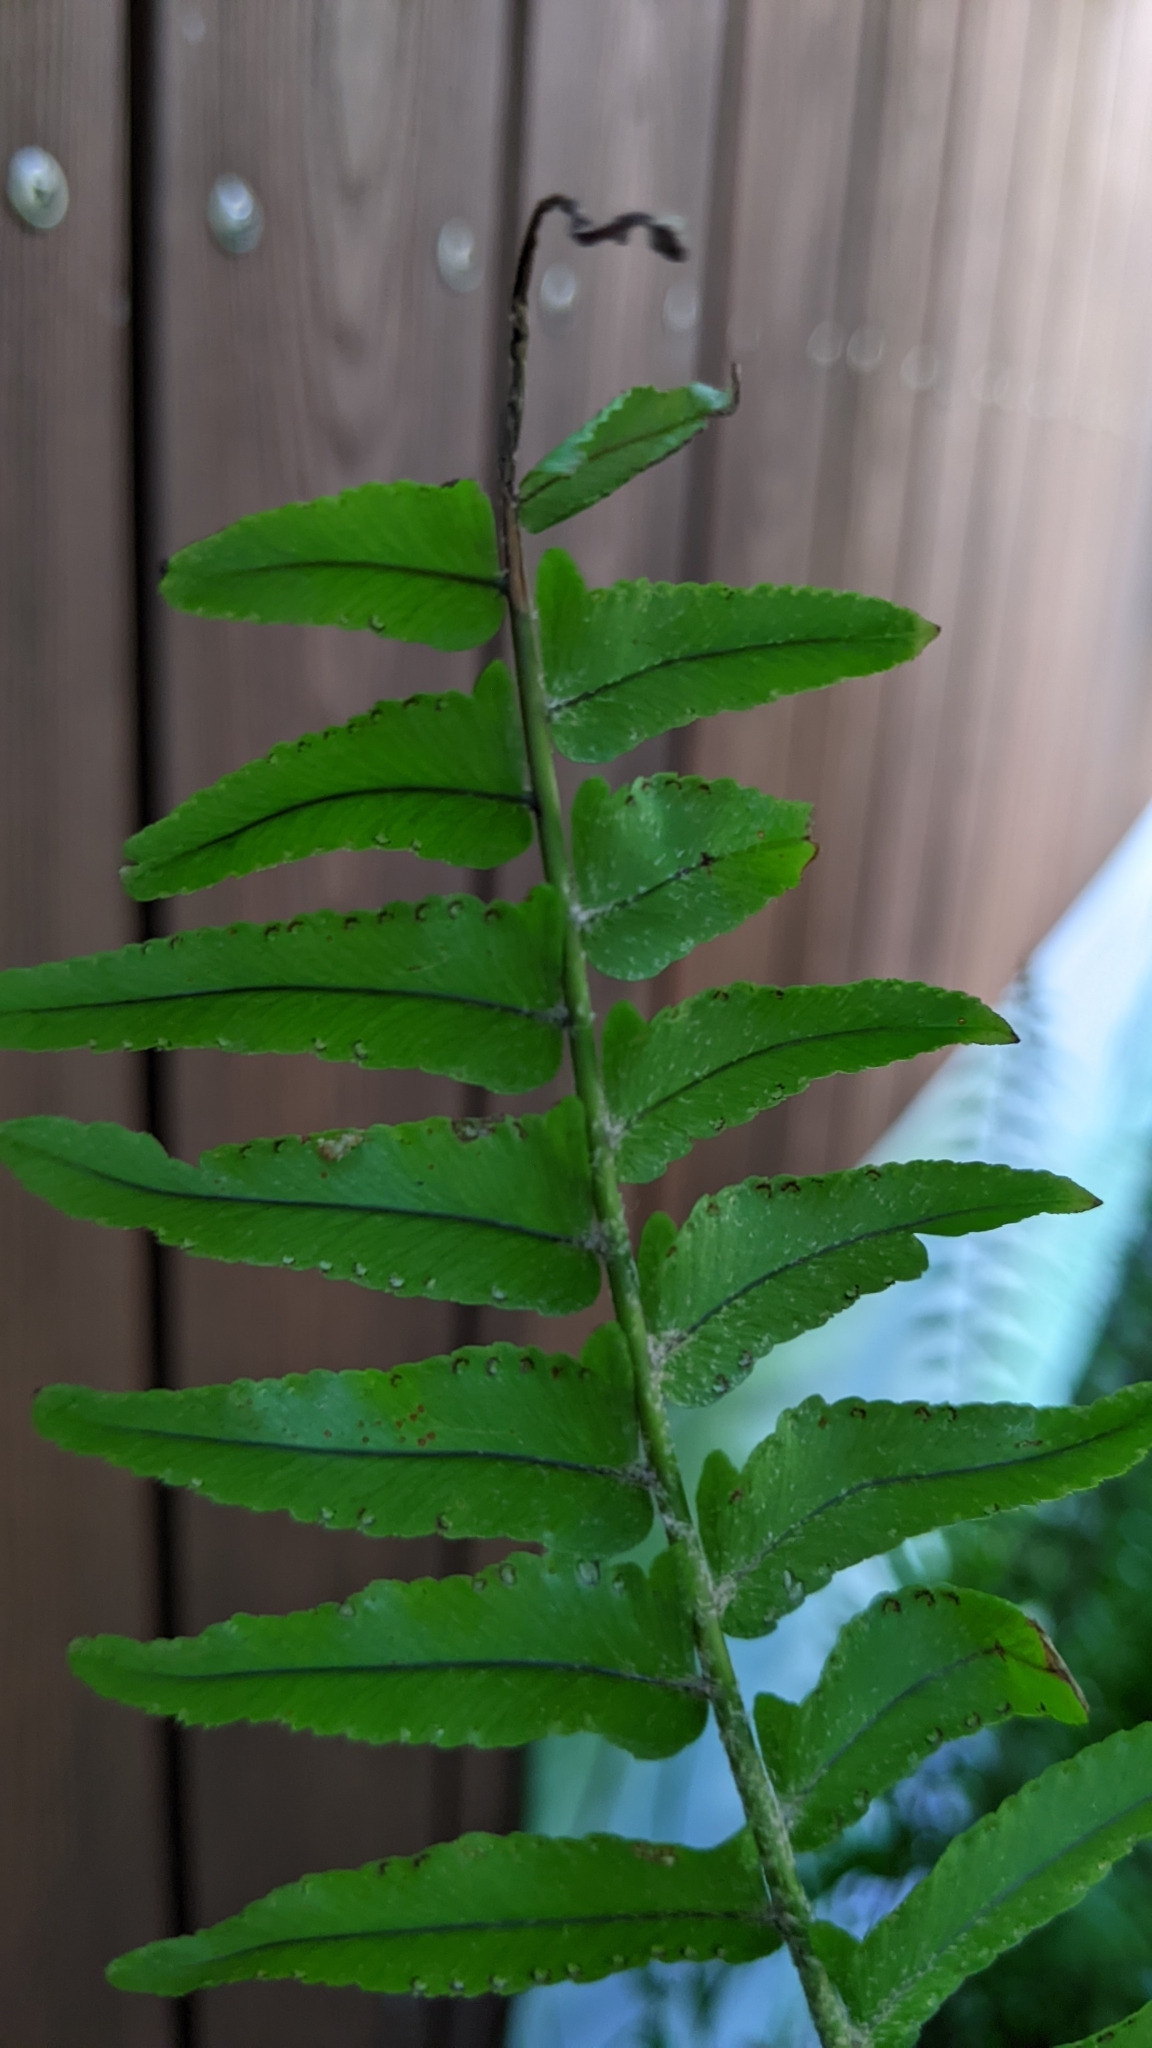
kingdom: Plantae
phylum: Tracheophyta
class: Polypodiopsida
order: Polypodiales
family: Nephrolepidaceae
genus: Nephrolepis
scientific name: Nephrolepis brownii
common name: Asian swordfern
